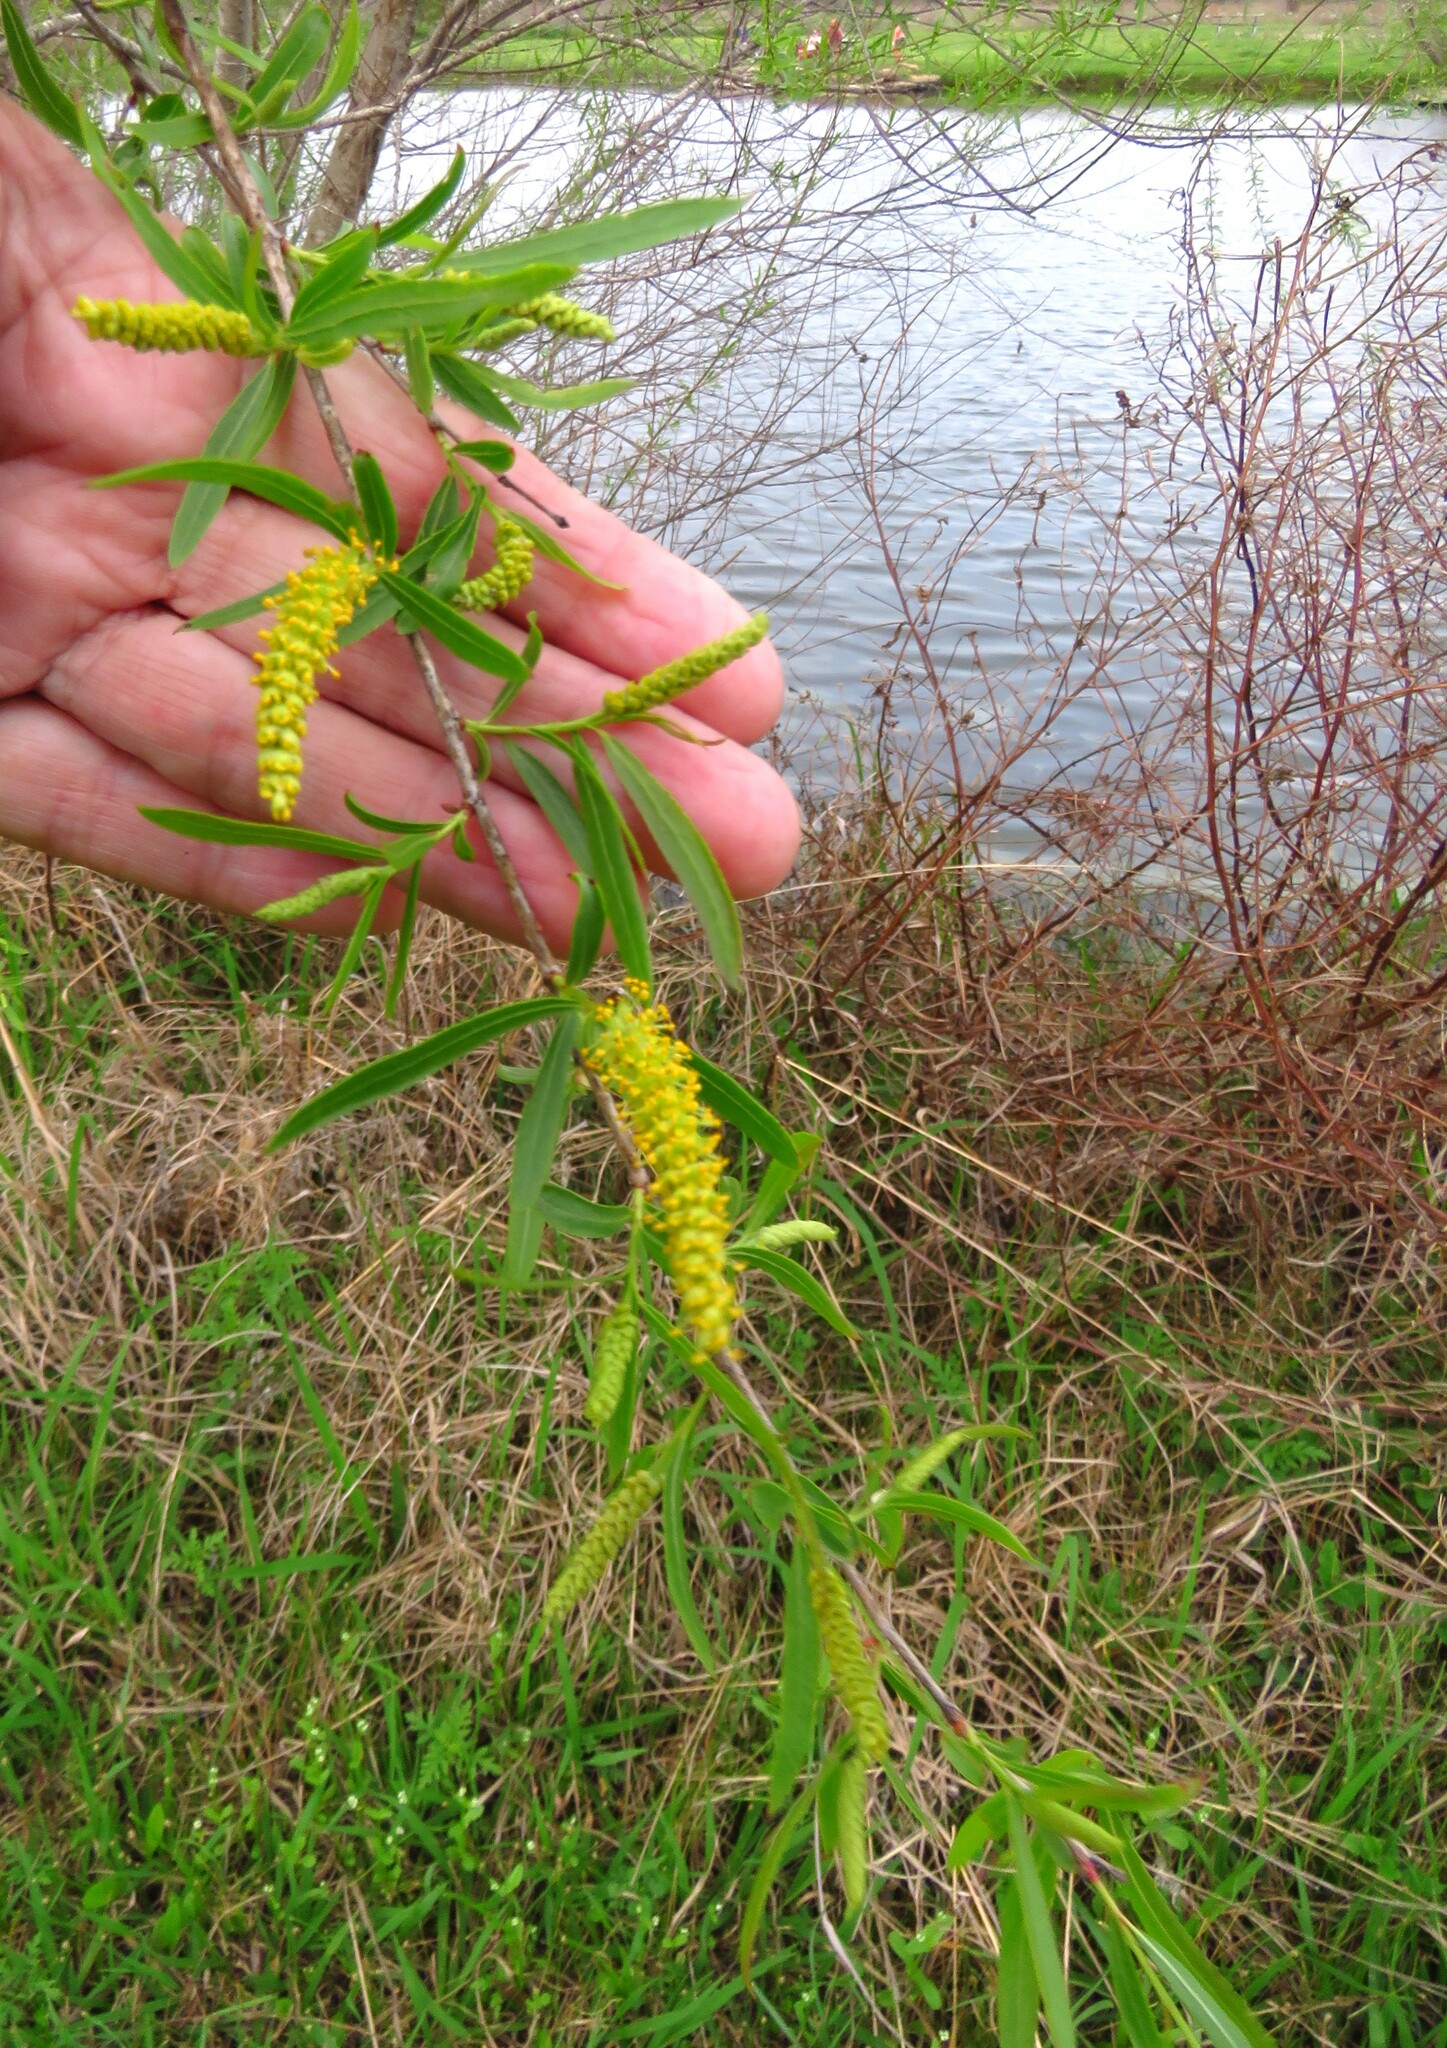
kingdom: Plantae
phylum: Tracheophyta
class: Magnoliopsida
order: Malpighiales
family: Salicaceae
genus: Salix
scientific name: Salix nigra
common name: Black willow
